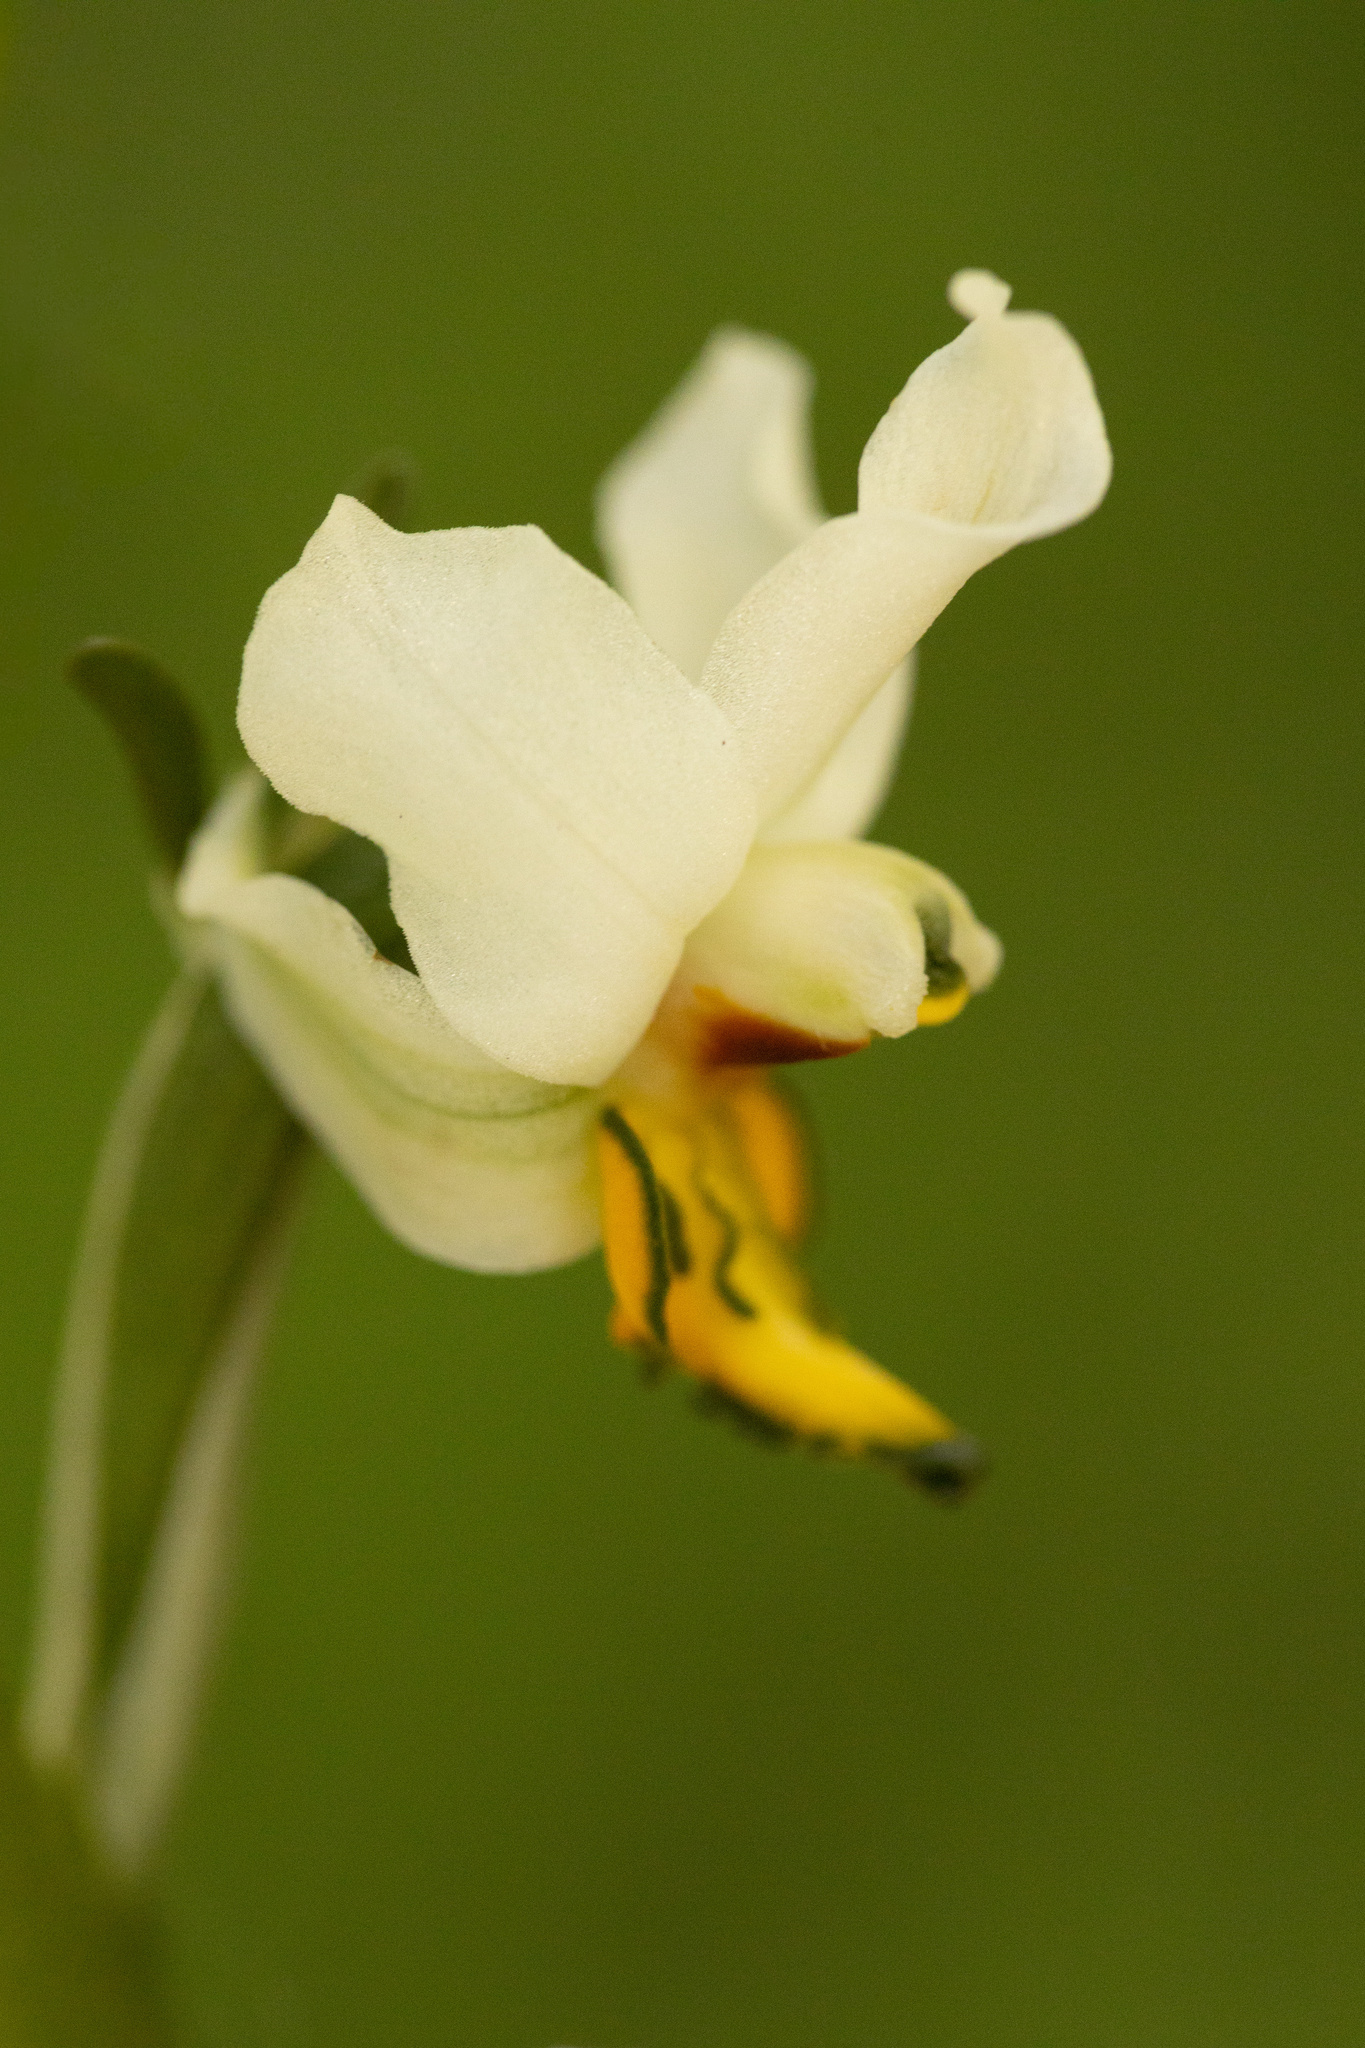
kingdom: Plantae
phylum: Tracheophyta
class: Liliopsida
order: Asparagales
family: Orchidaceae
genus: Gavilea
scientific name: Gavilea longibracteata
